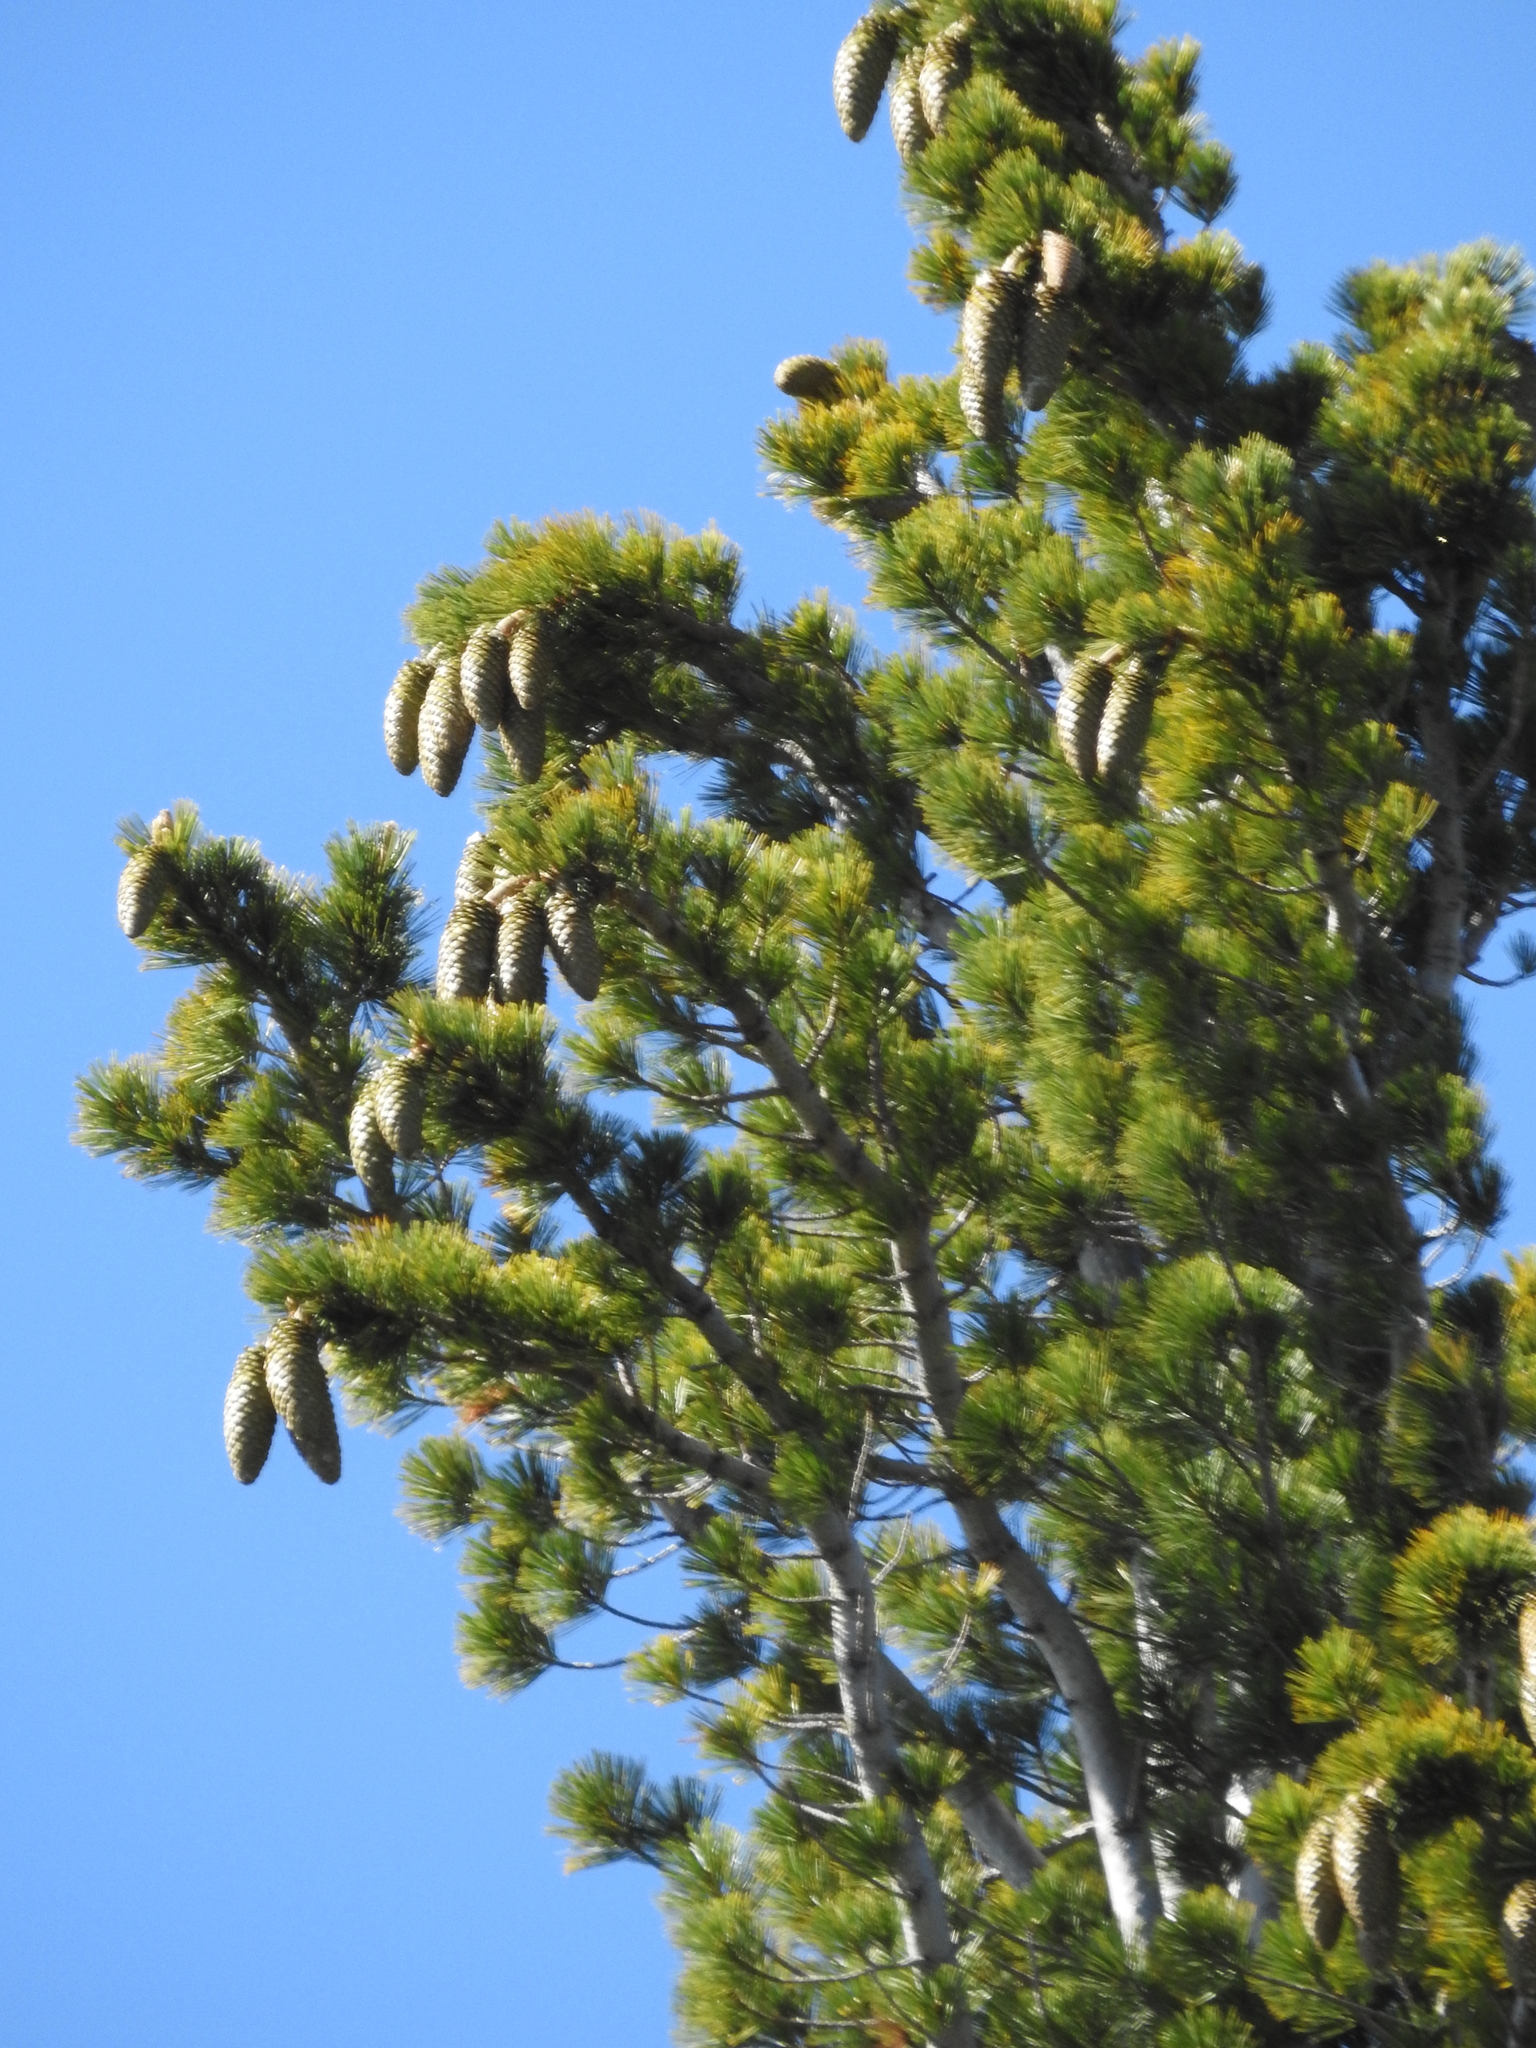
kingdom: Plantae
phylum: Tracheophyta
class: Pinopsida
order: Pinales
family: Pinaceae
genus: Pinus
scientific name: Pinus lambertiana
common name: Sugar pine
